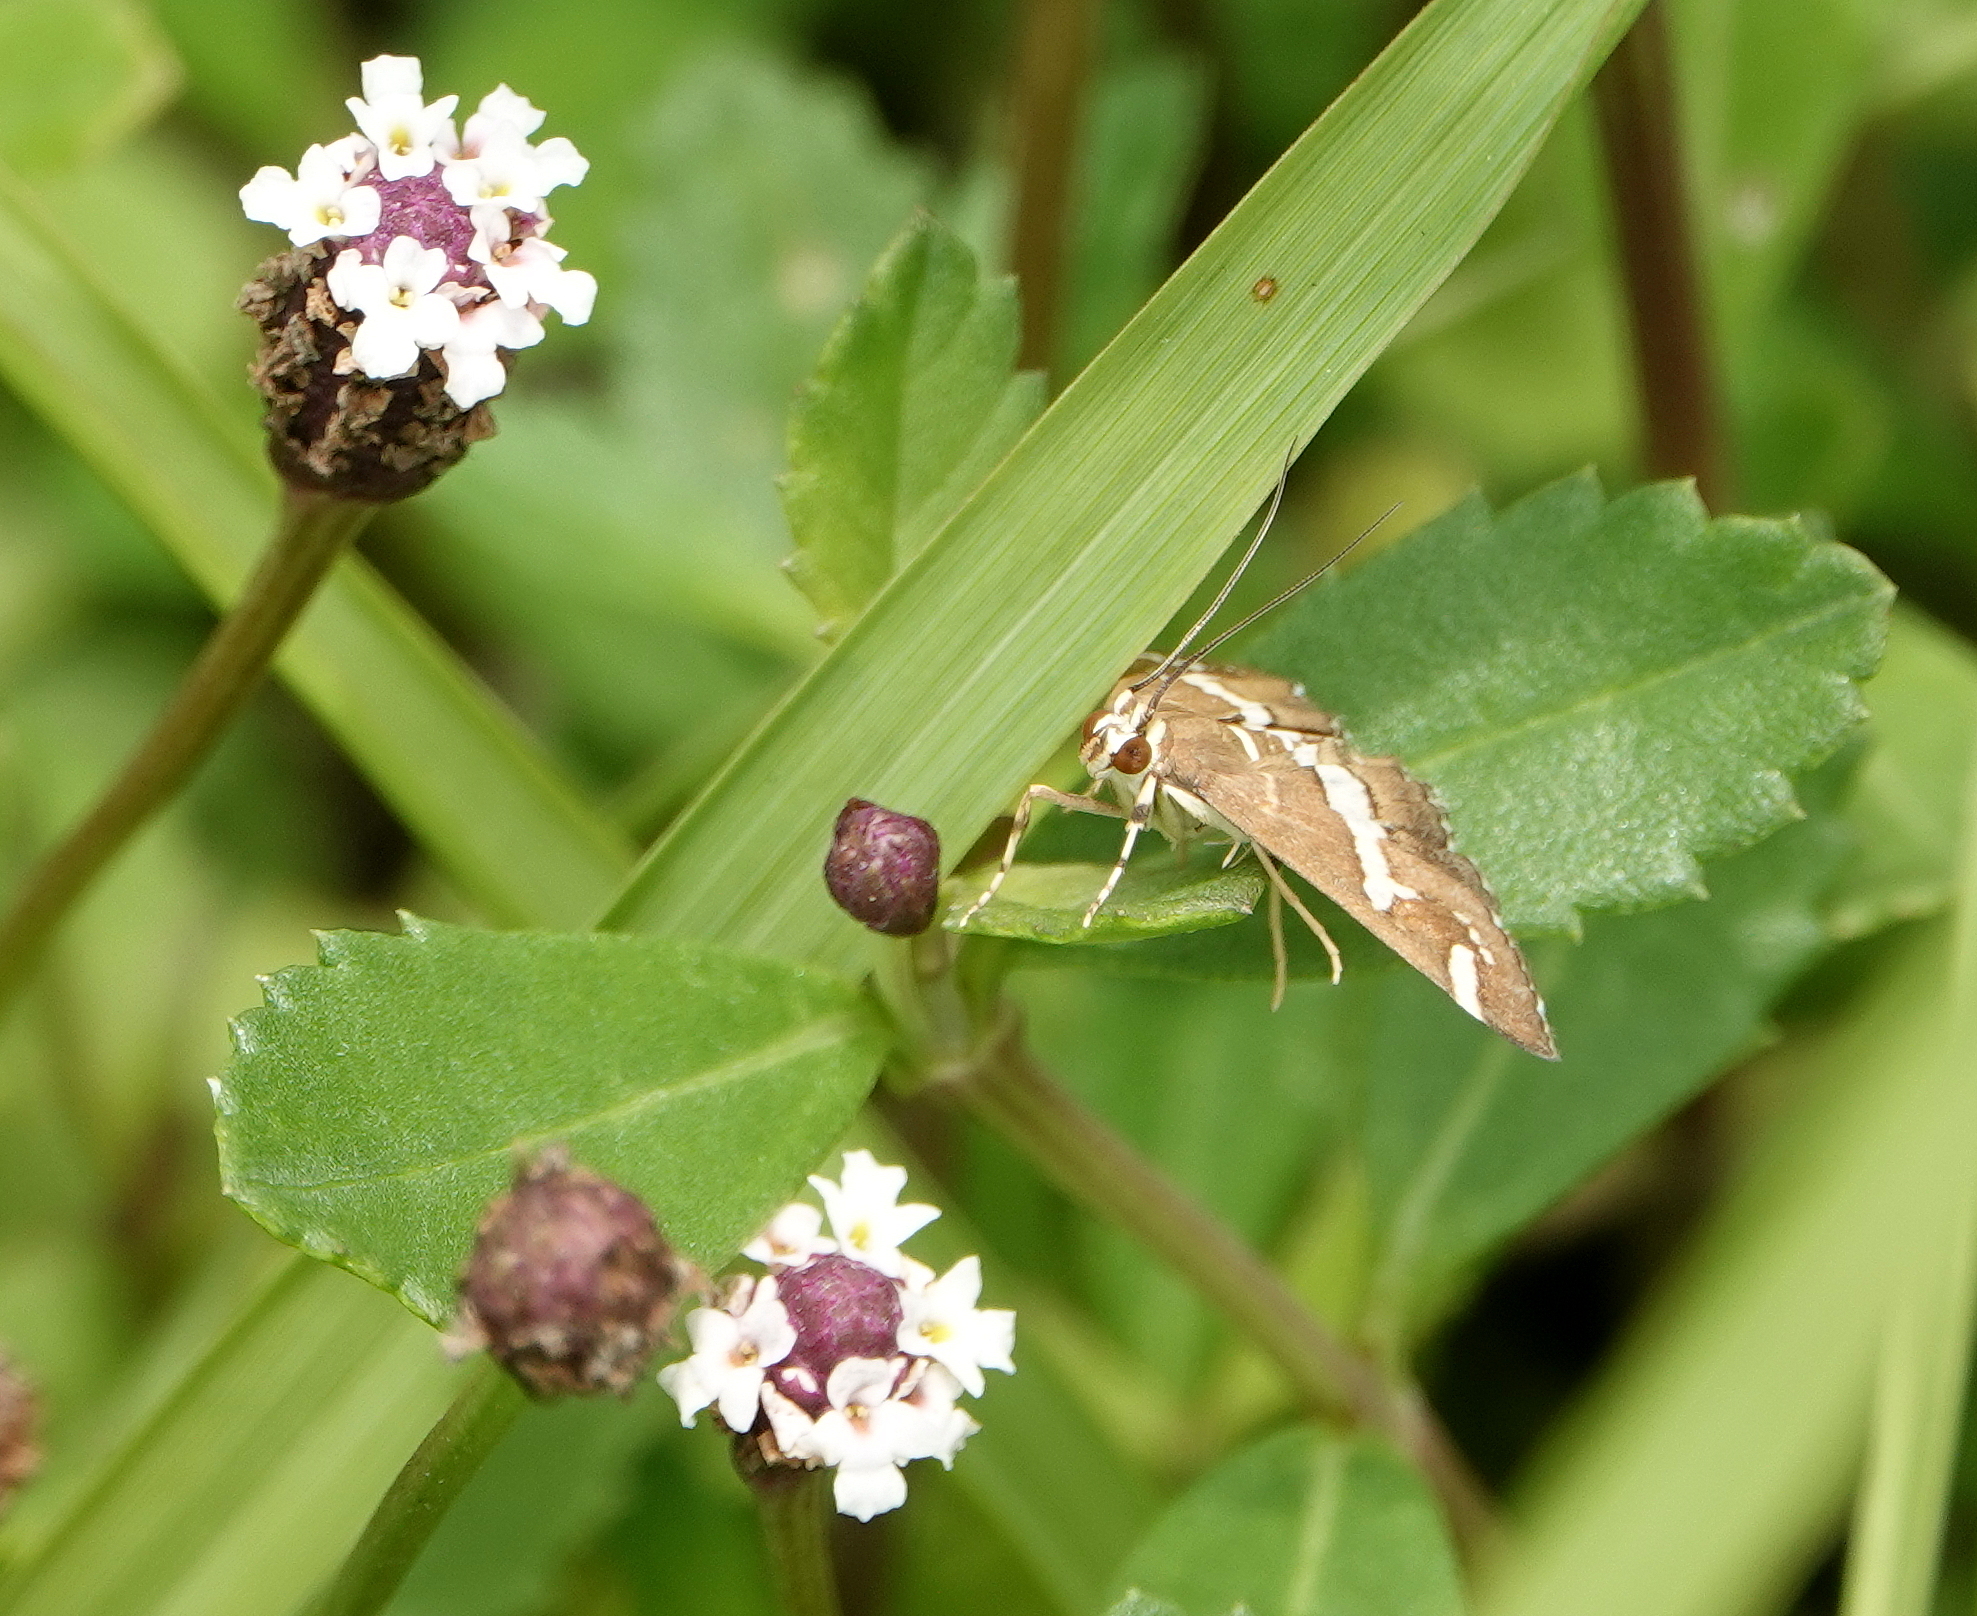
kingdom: Animalia
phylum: Arthropoda
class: Insecta
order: Lepidoptera
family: Crambidae
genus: Spoladea
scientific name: Spoladea recurvalis
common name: Beet webworm moth
